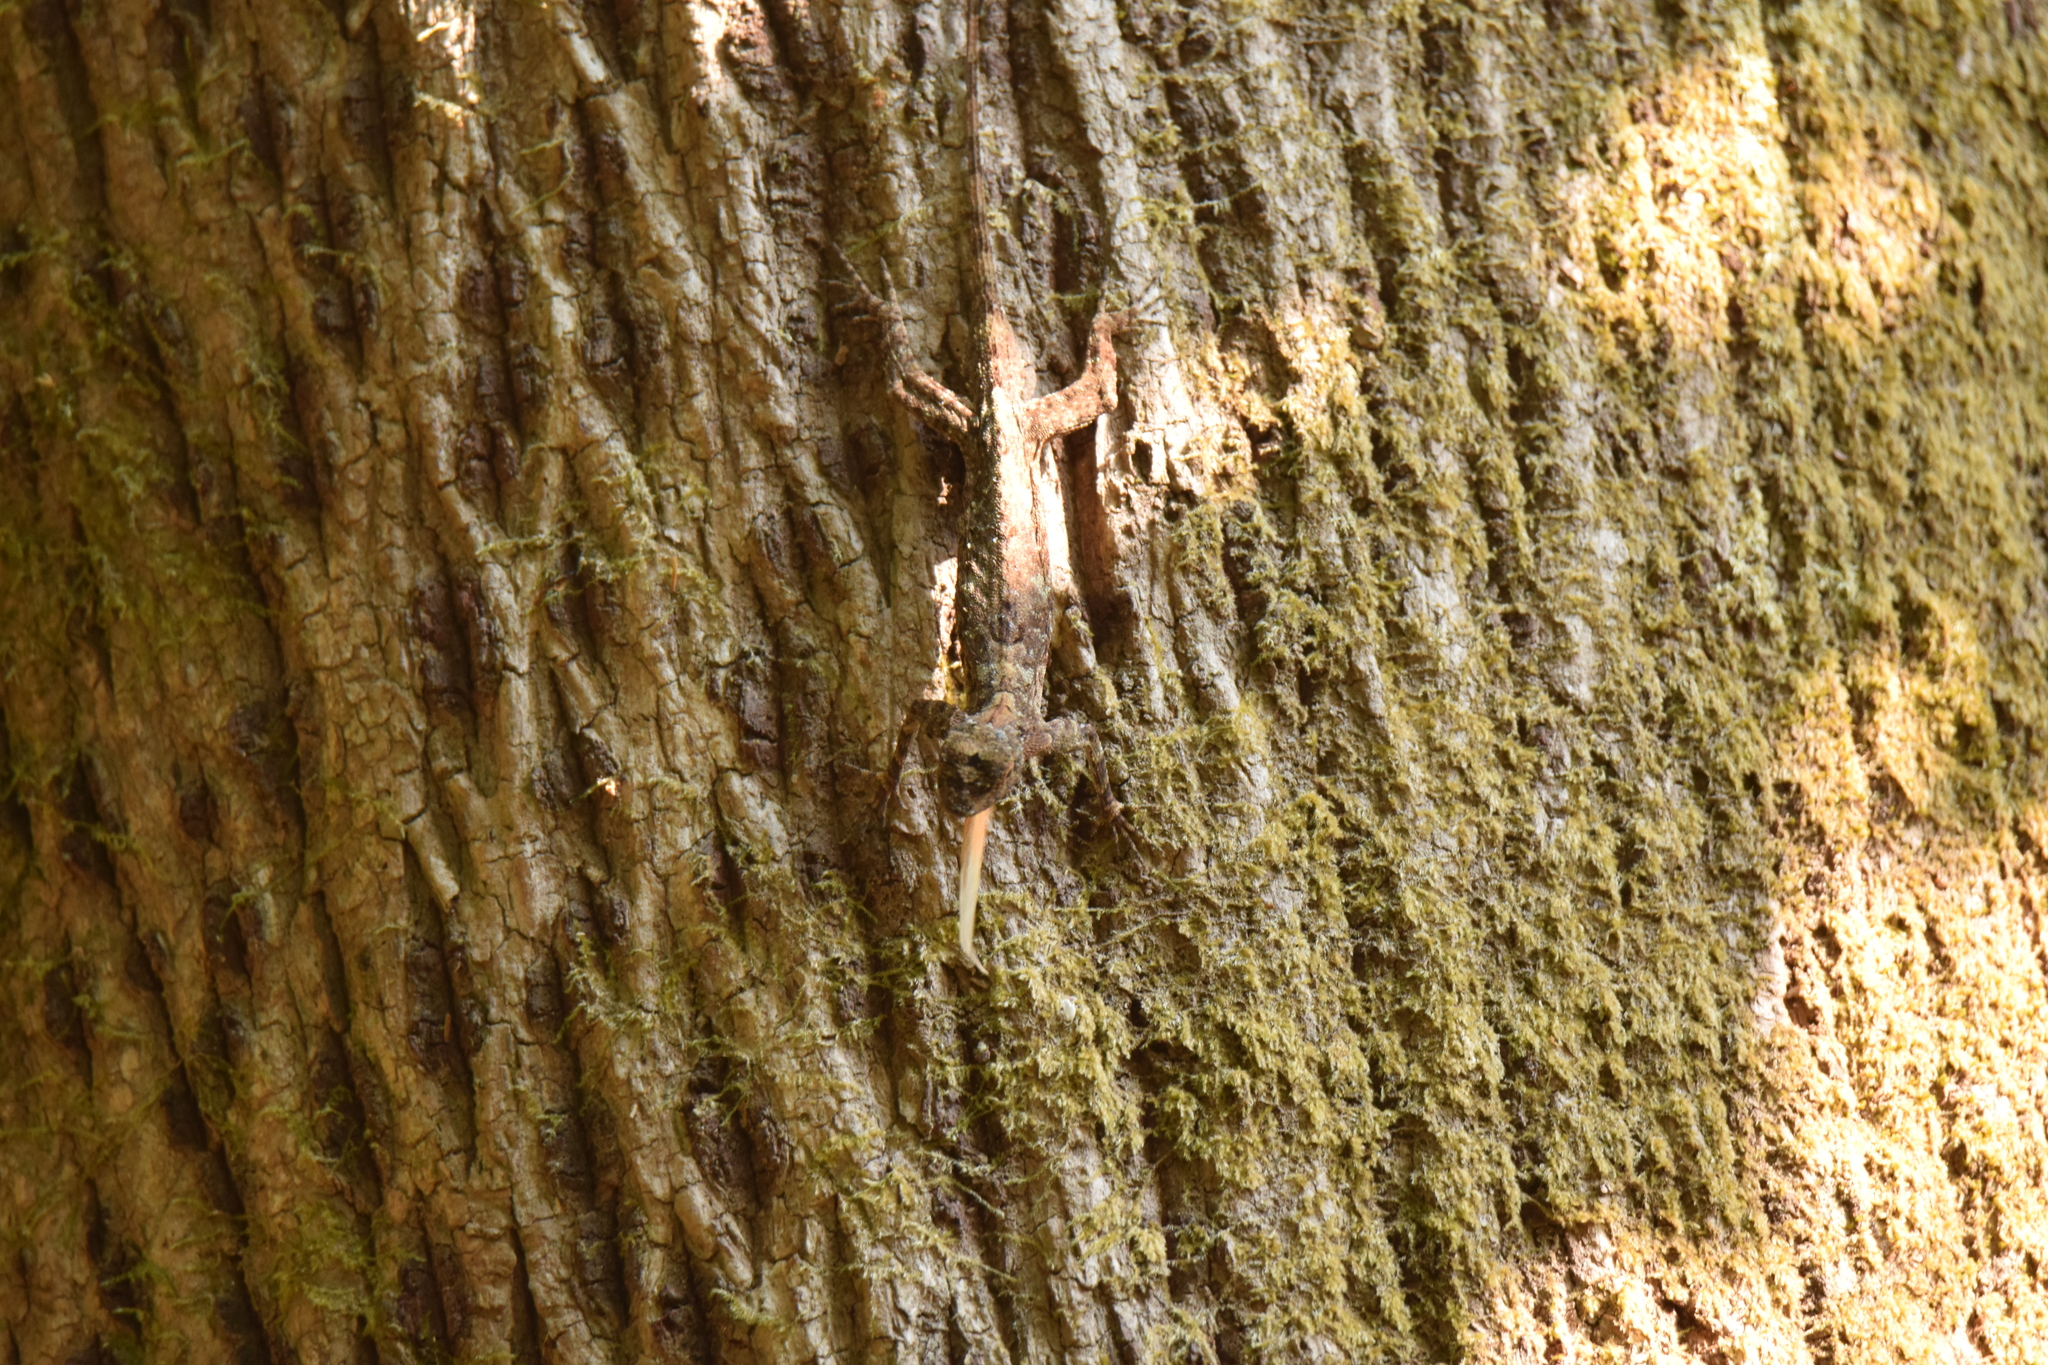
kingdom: Animalia
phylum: Chordata
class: Squamata
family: Agamidae
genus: Draco
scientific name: Draco maculatus
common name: Spotted flying dragon
